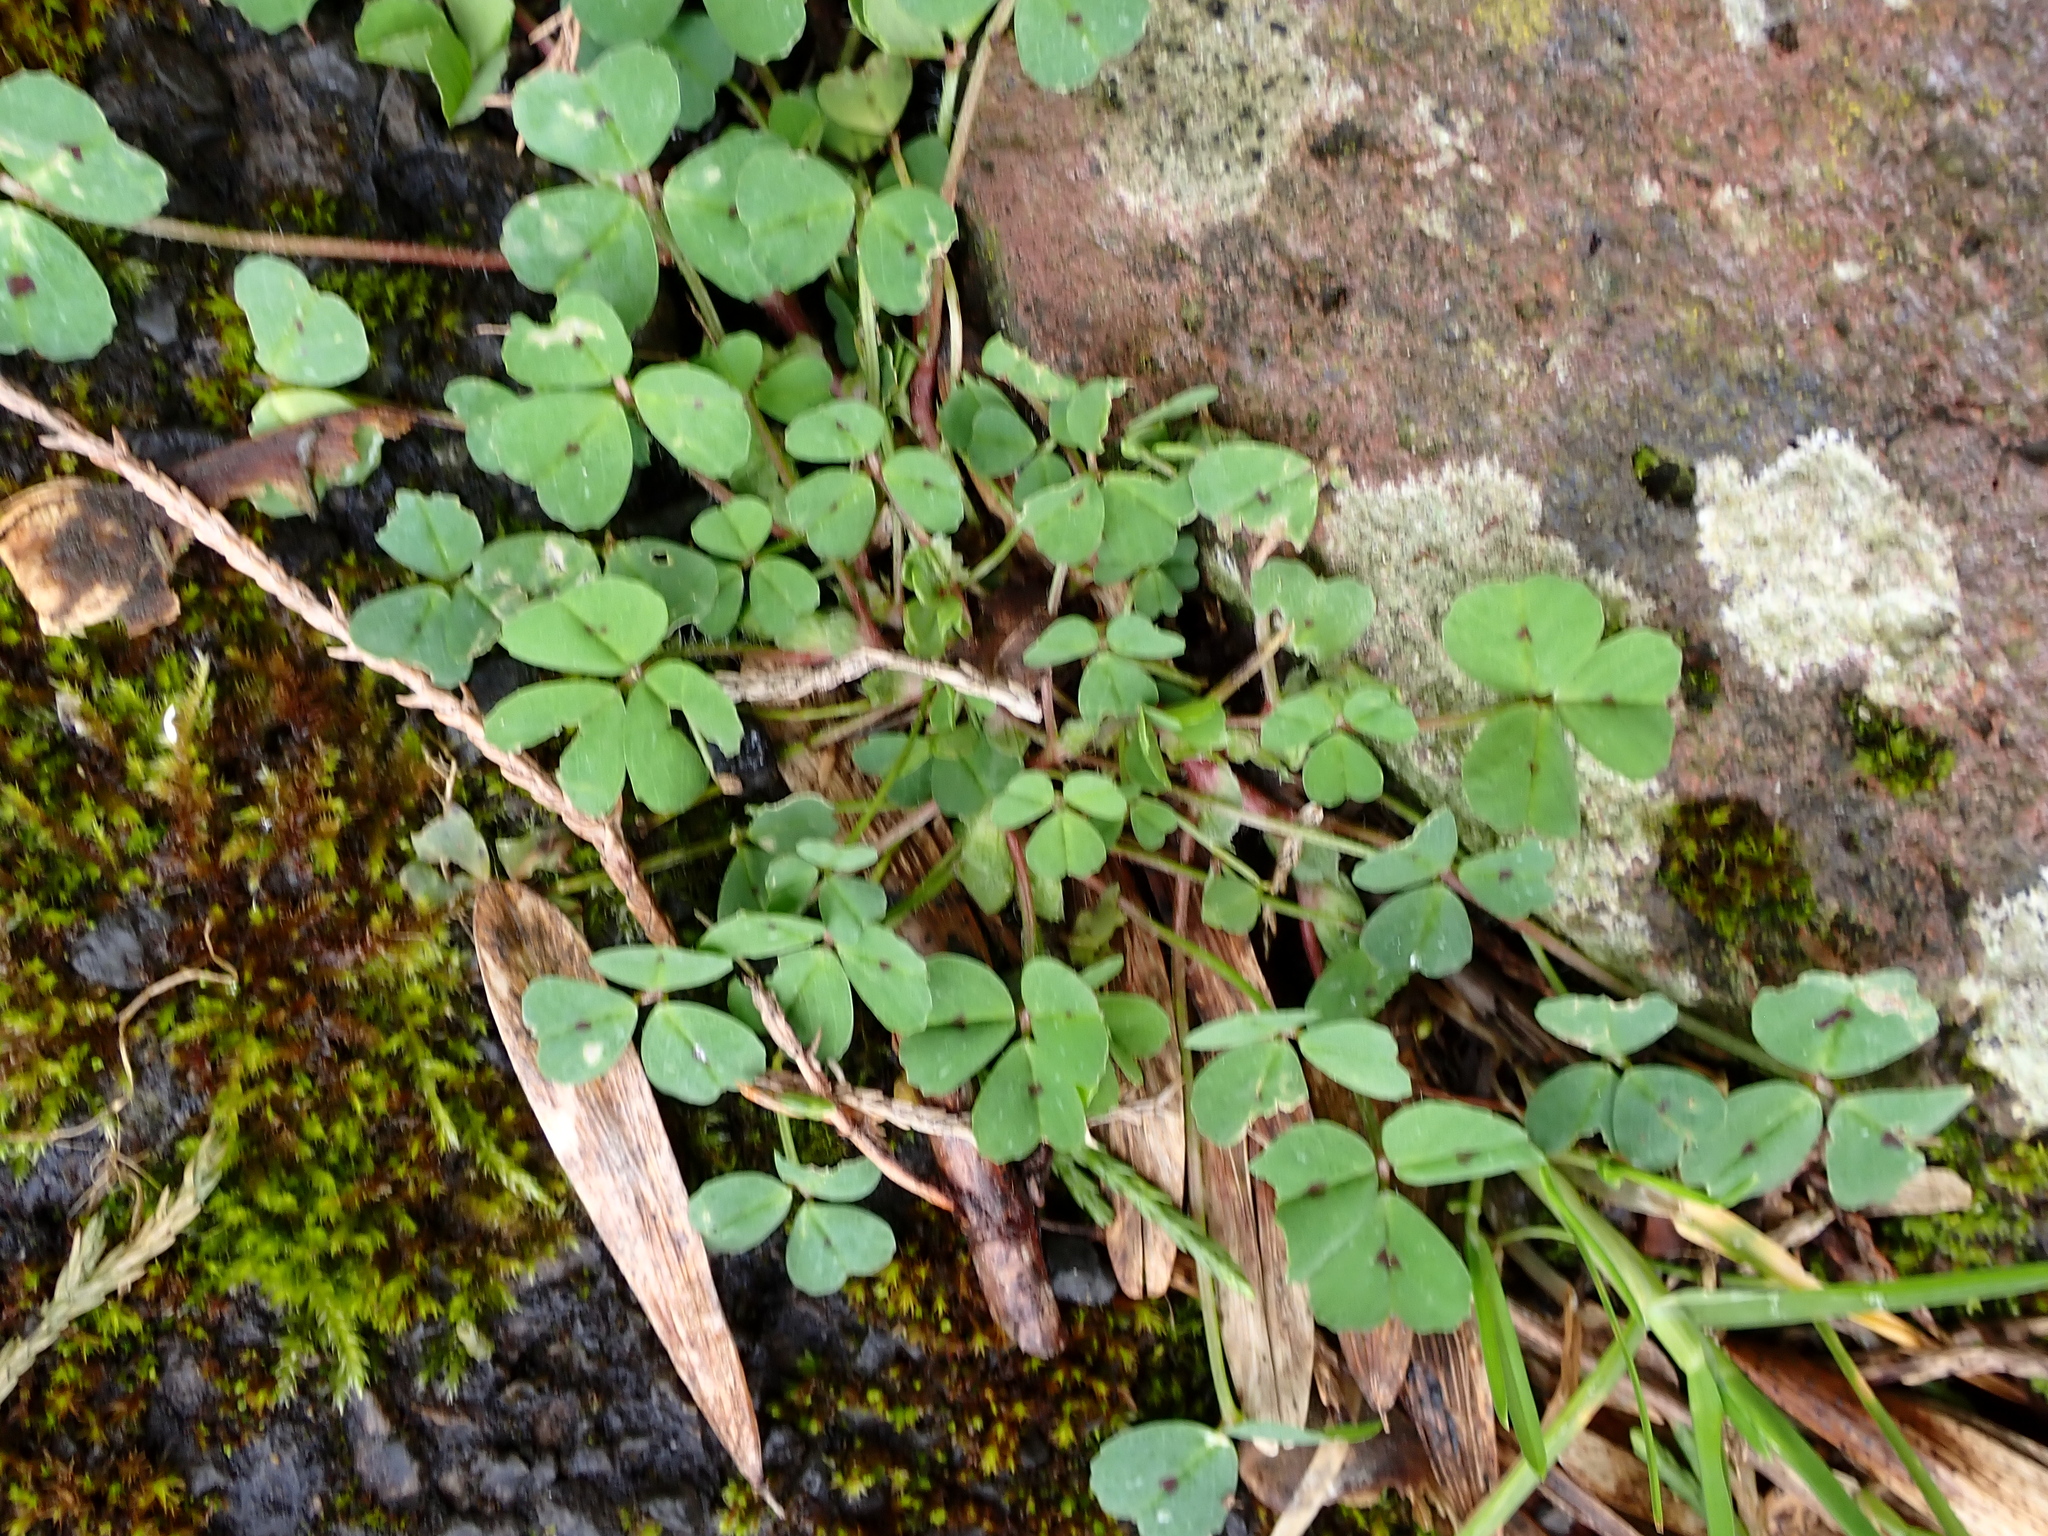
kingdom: Plantae
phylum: Tracheophyta
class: Magnoliopsida
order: Fabales
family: Fabaceae
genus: Medicago
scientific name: Medicago arabica
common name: Spotted medick
